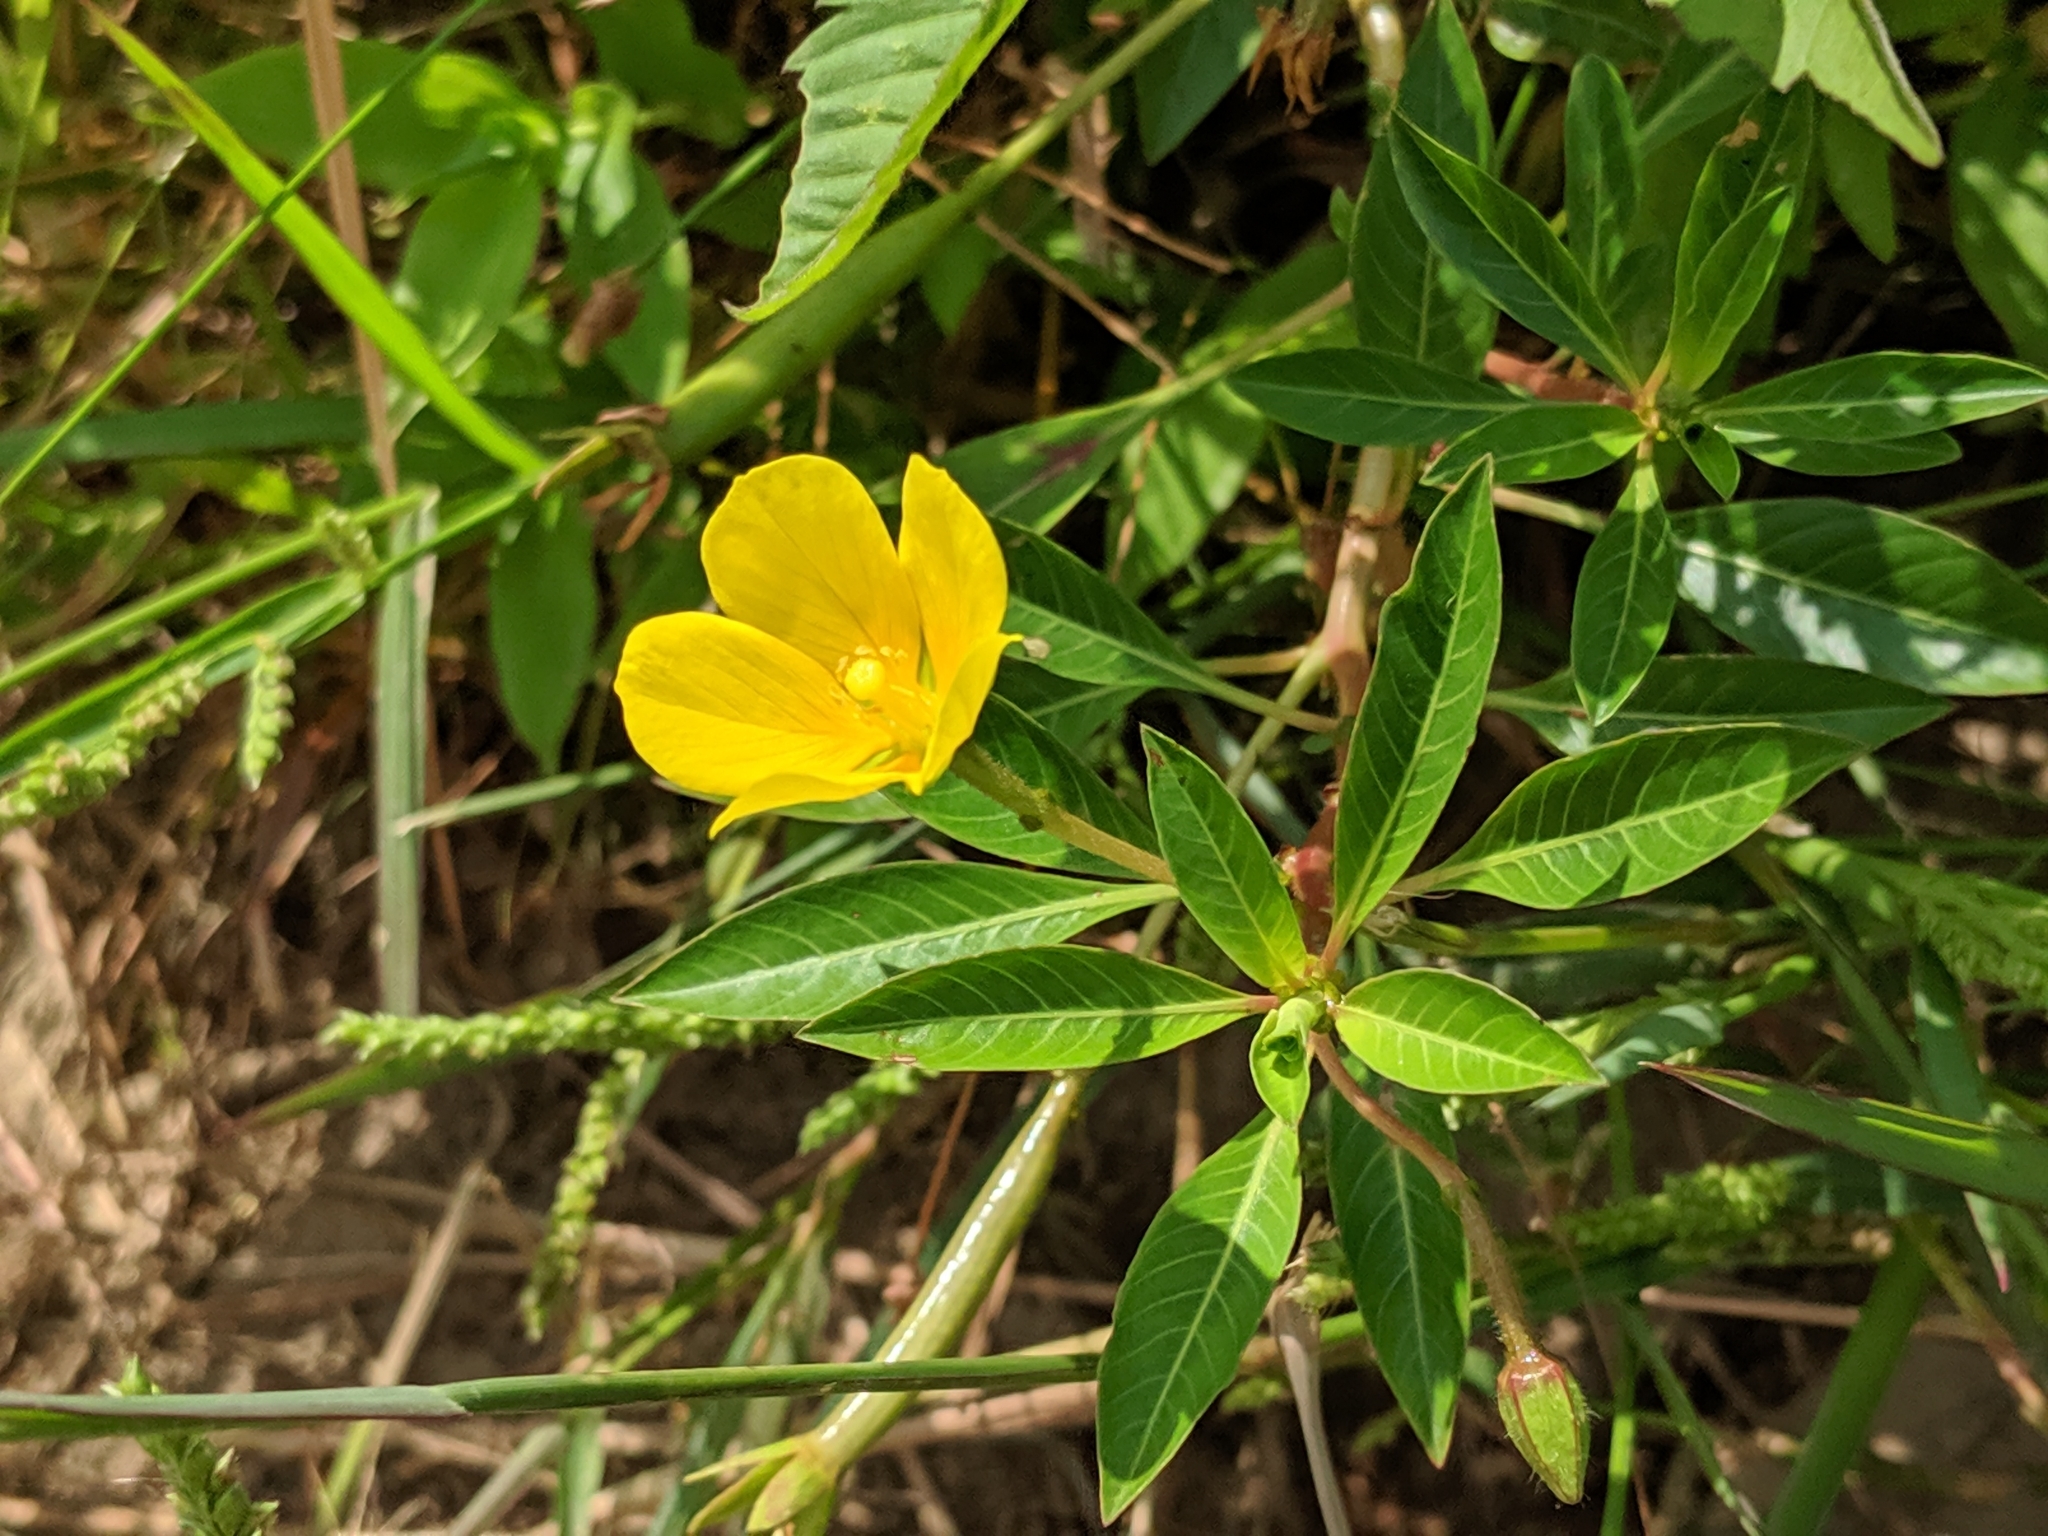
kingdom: Plantae
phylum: Tracheophyta
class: Magnoliopsida
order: Myrtales
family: Onagraceae
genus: Ludwigia
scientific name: Ludwigia peploides
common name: Floating primrose-willow
